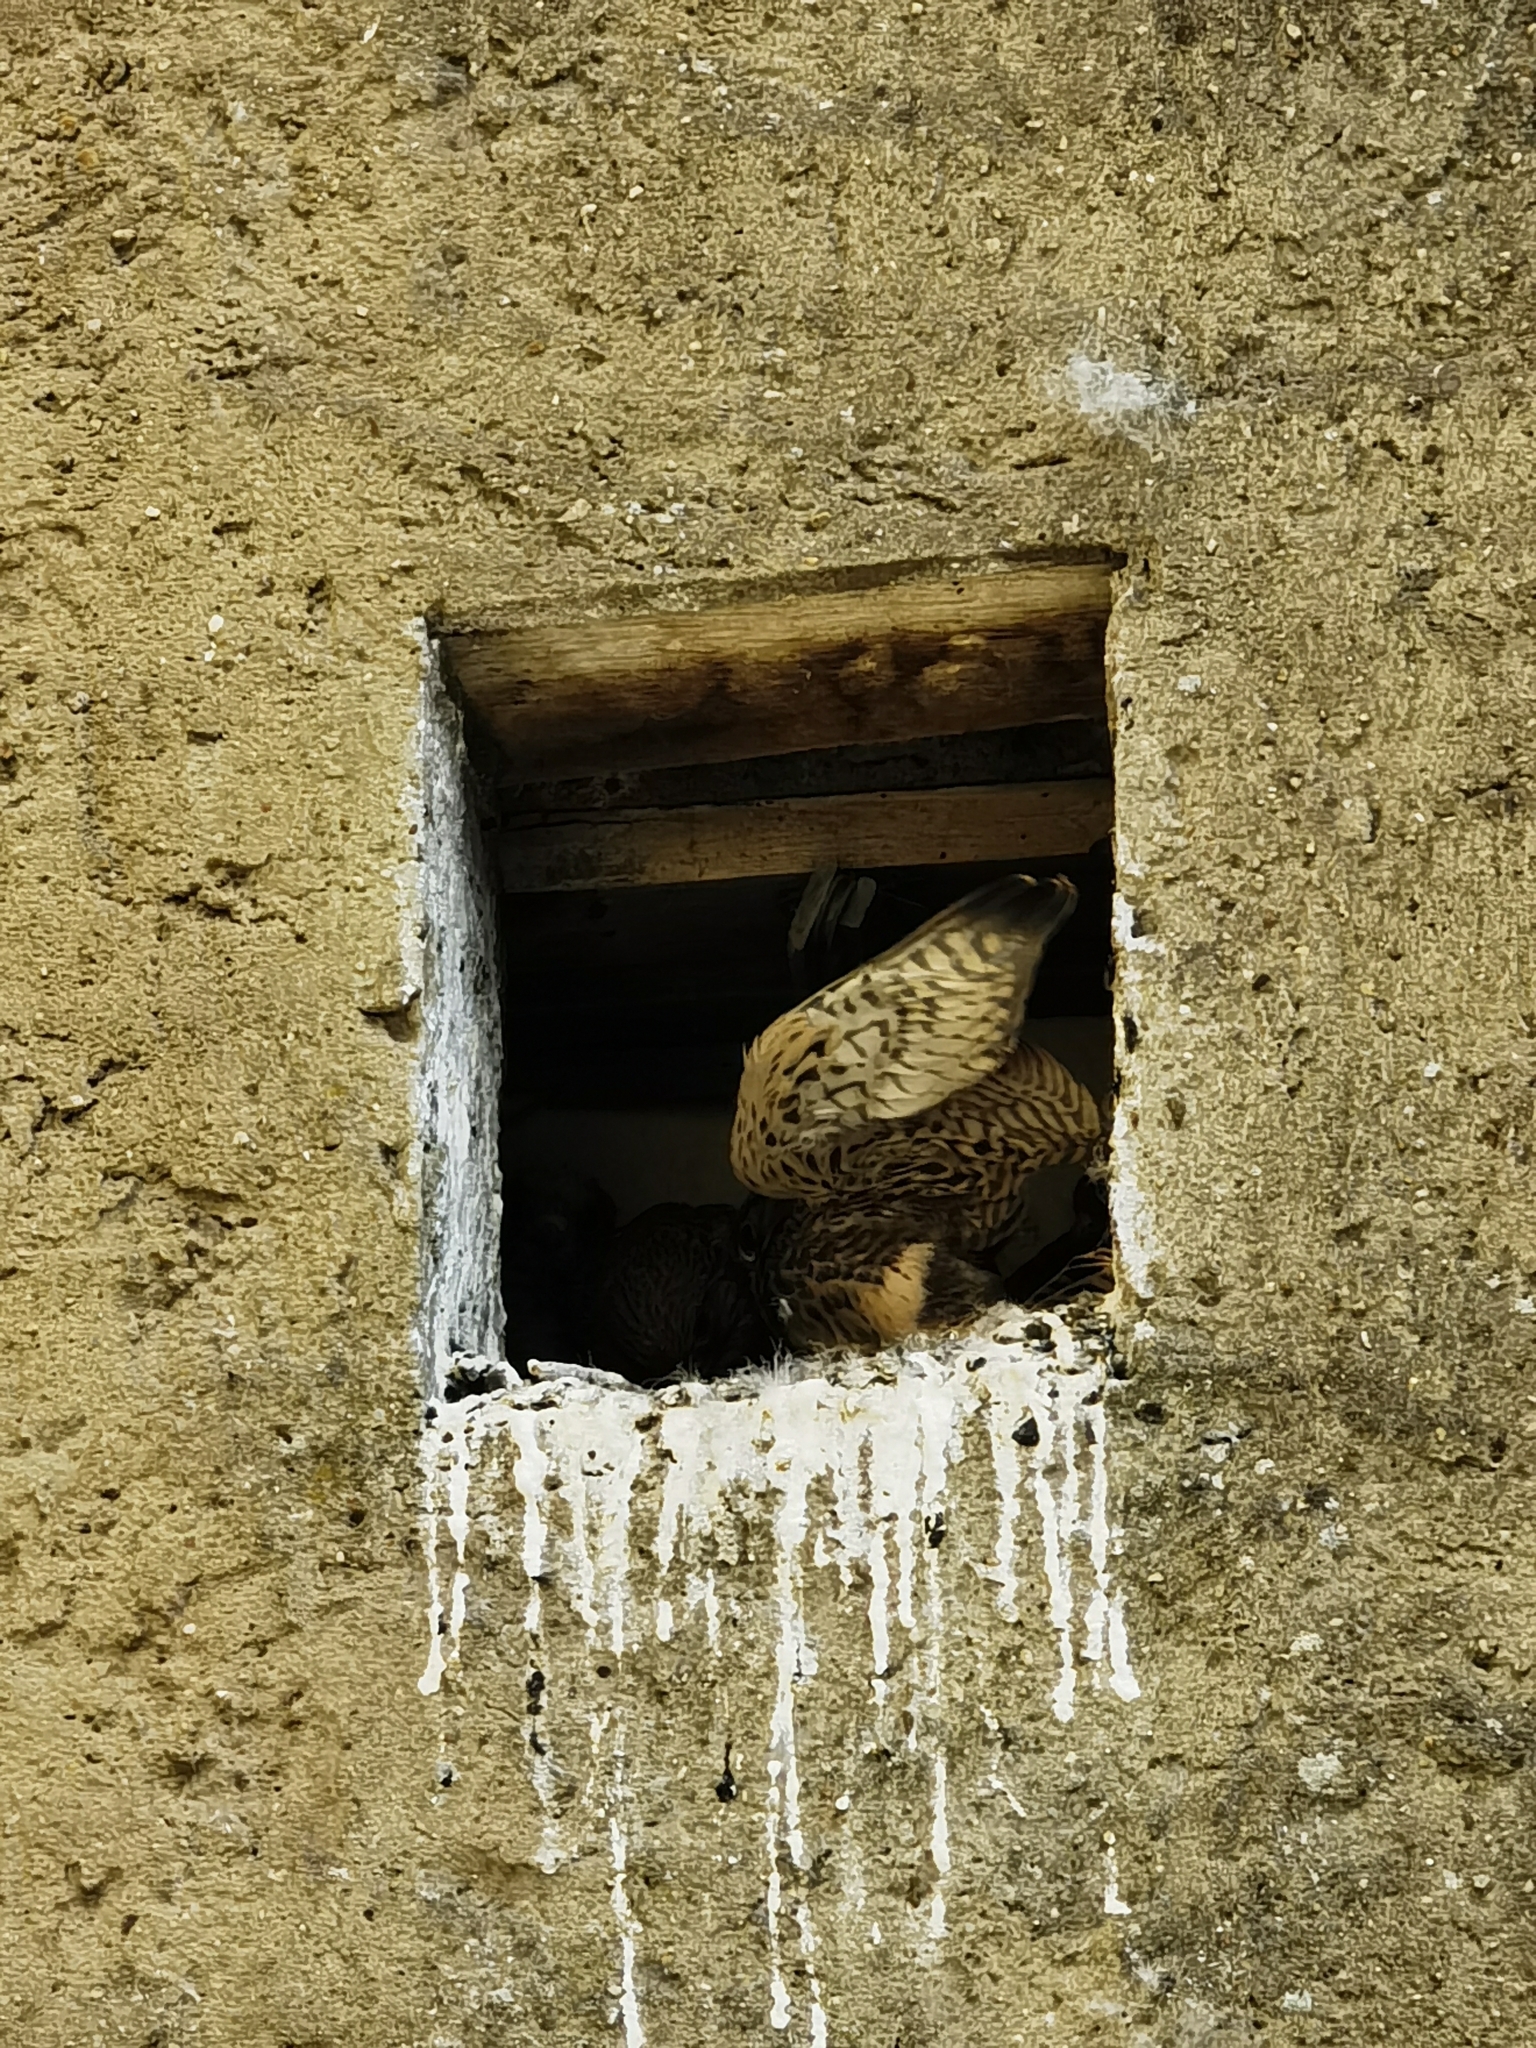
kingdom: Animalia
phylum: Chordata
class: Aves
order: Falconiformes
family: Falconidae
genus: Falco
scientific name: Falco tinnunculus
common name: Common kestrel
